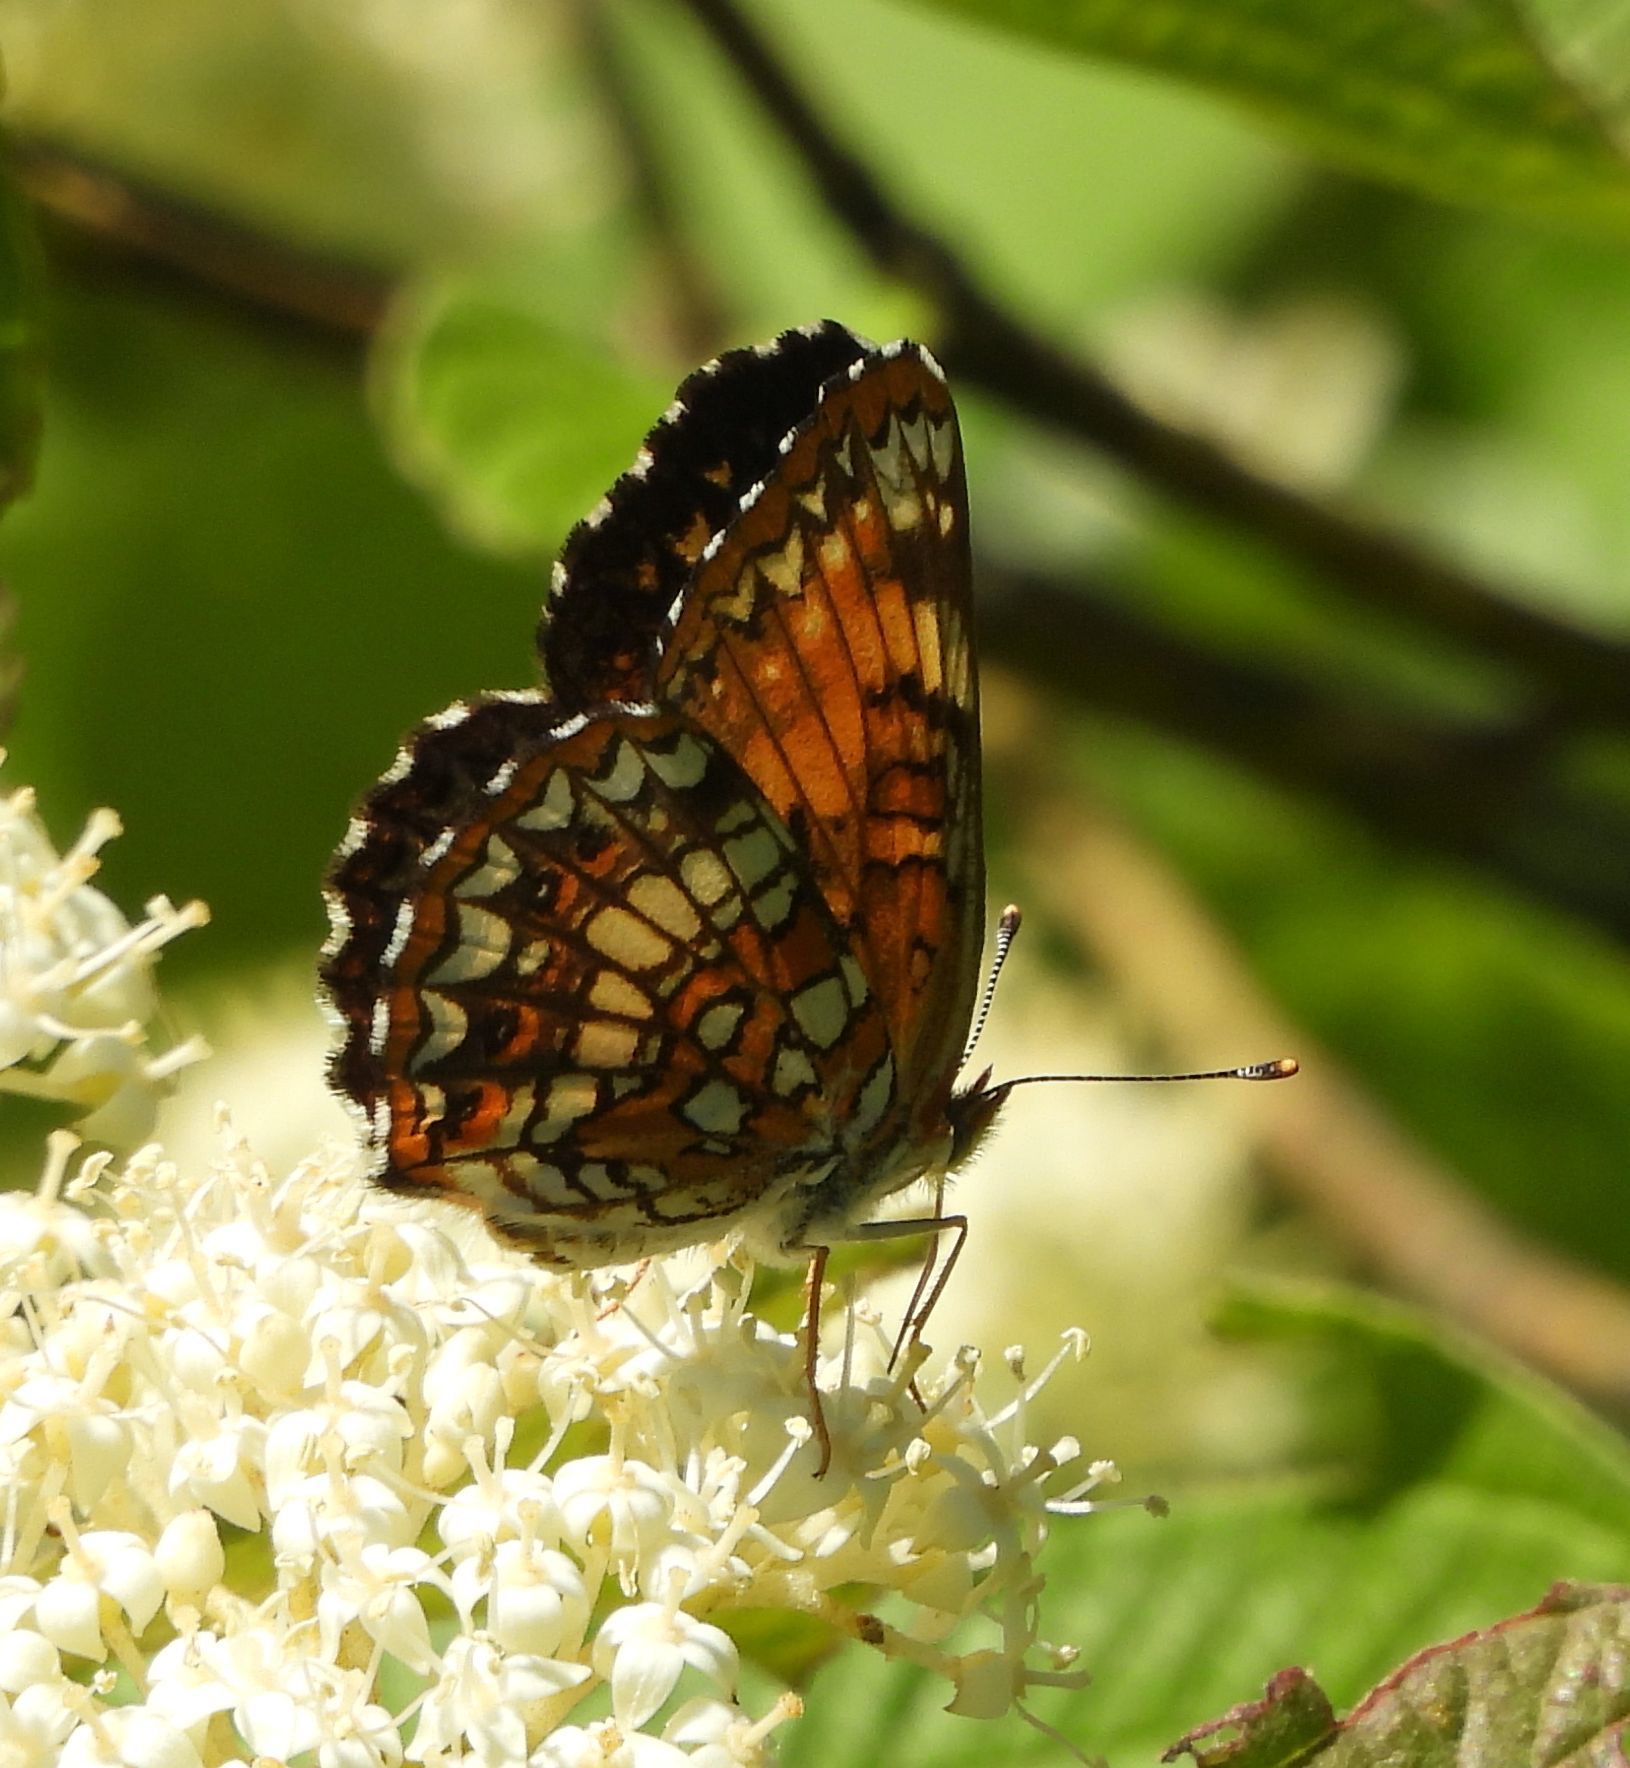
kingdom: Animalia
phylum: Arthropoda
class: Insecta
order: Lepidoptera
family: Nymphalidae
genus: Chlosyne
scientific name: Chlosyne harrisii
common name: Harris's checkerspot
